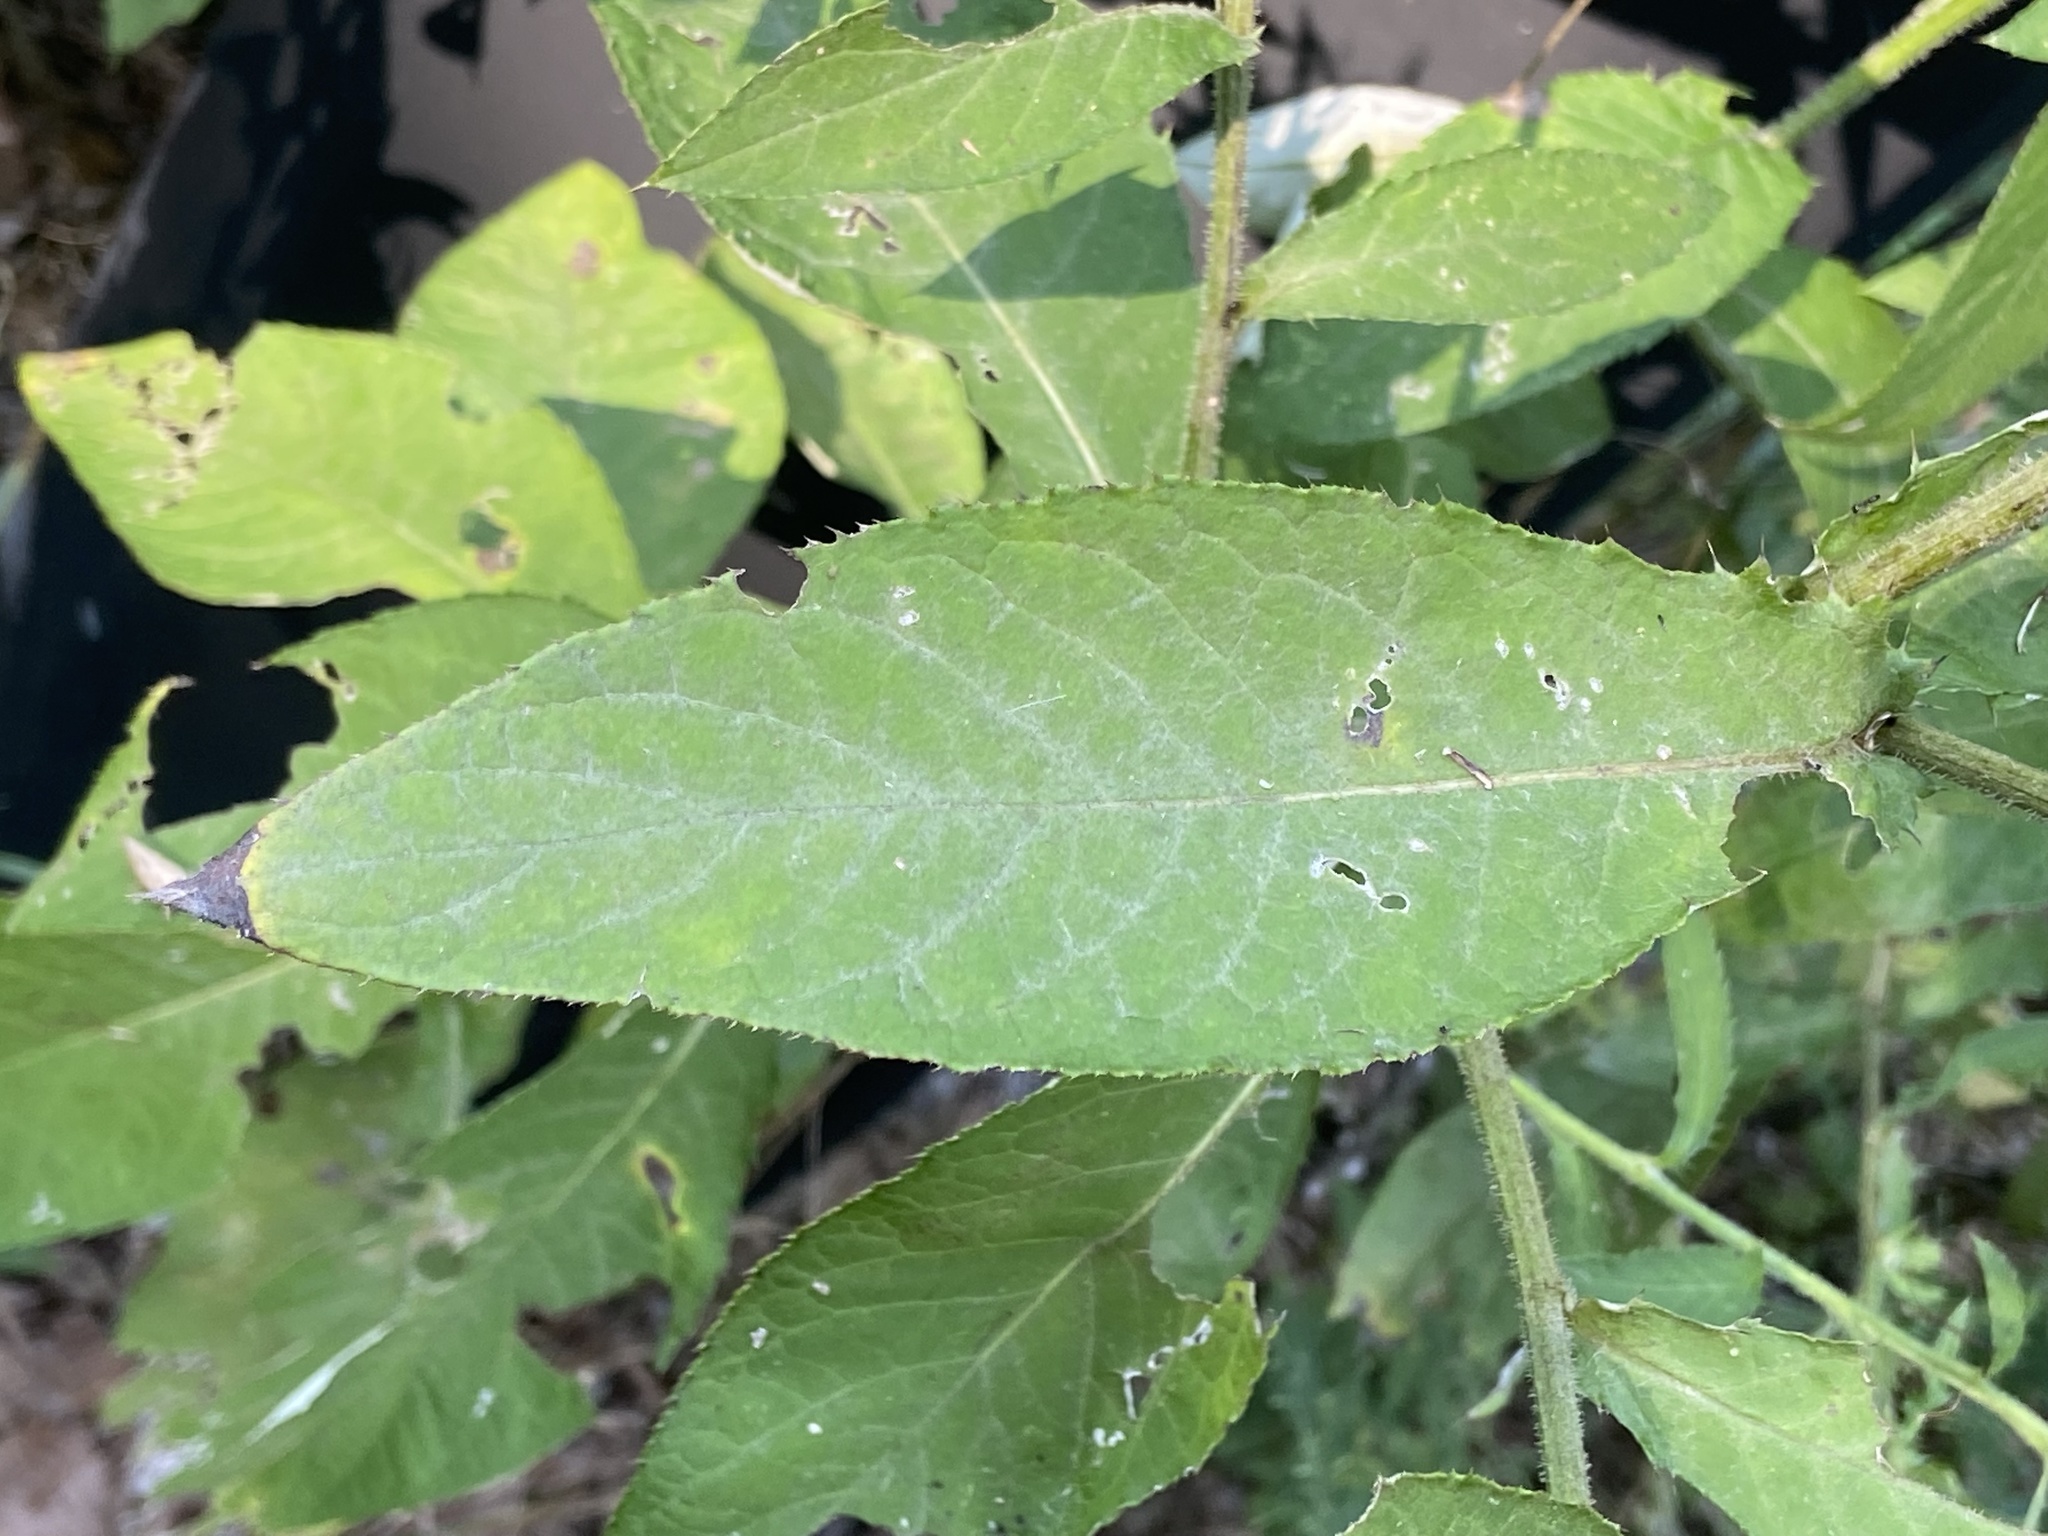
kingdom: Plantae
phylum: Tracheophyta
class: Magnoliopsida
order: Asterales
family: Asteraceae
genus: Cirsium
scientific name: Cirsium altissimum
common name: Roadside thistle
